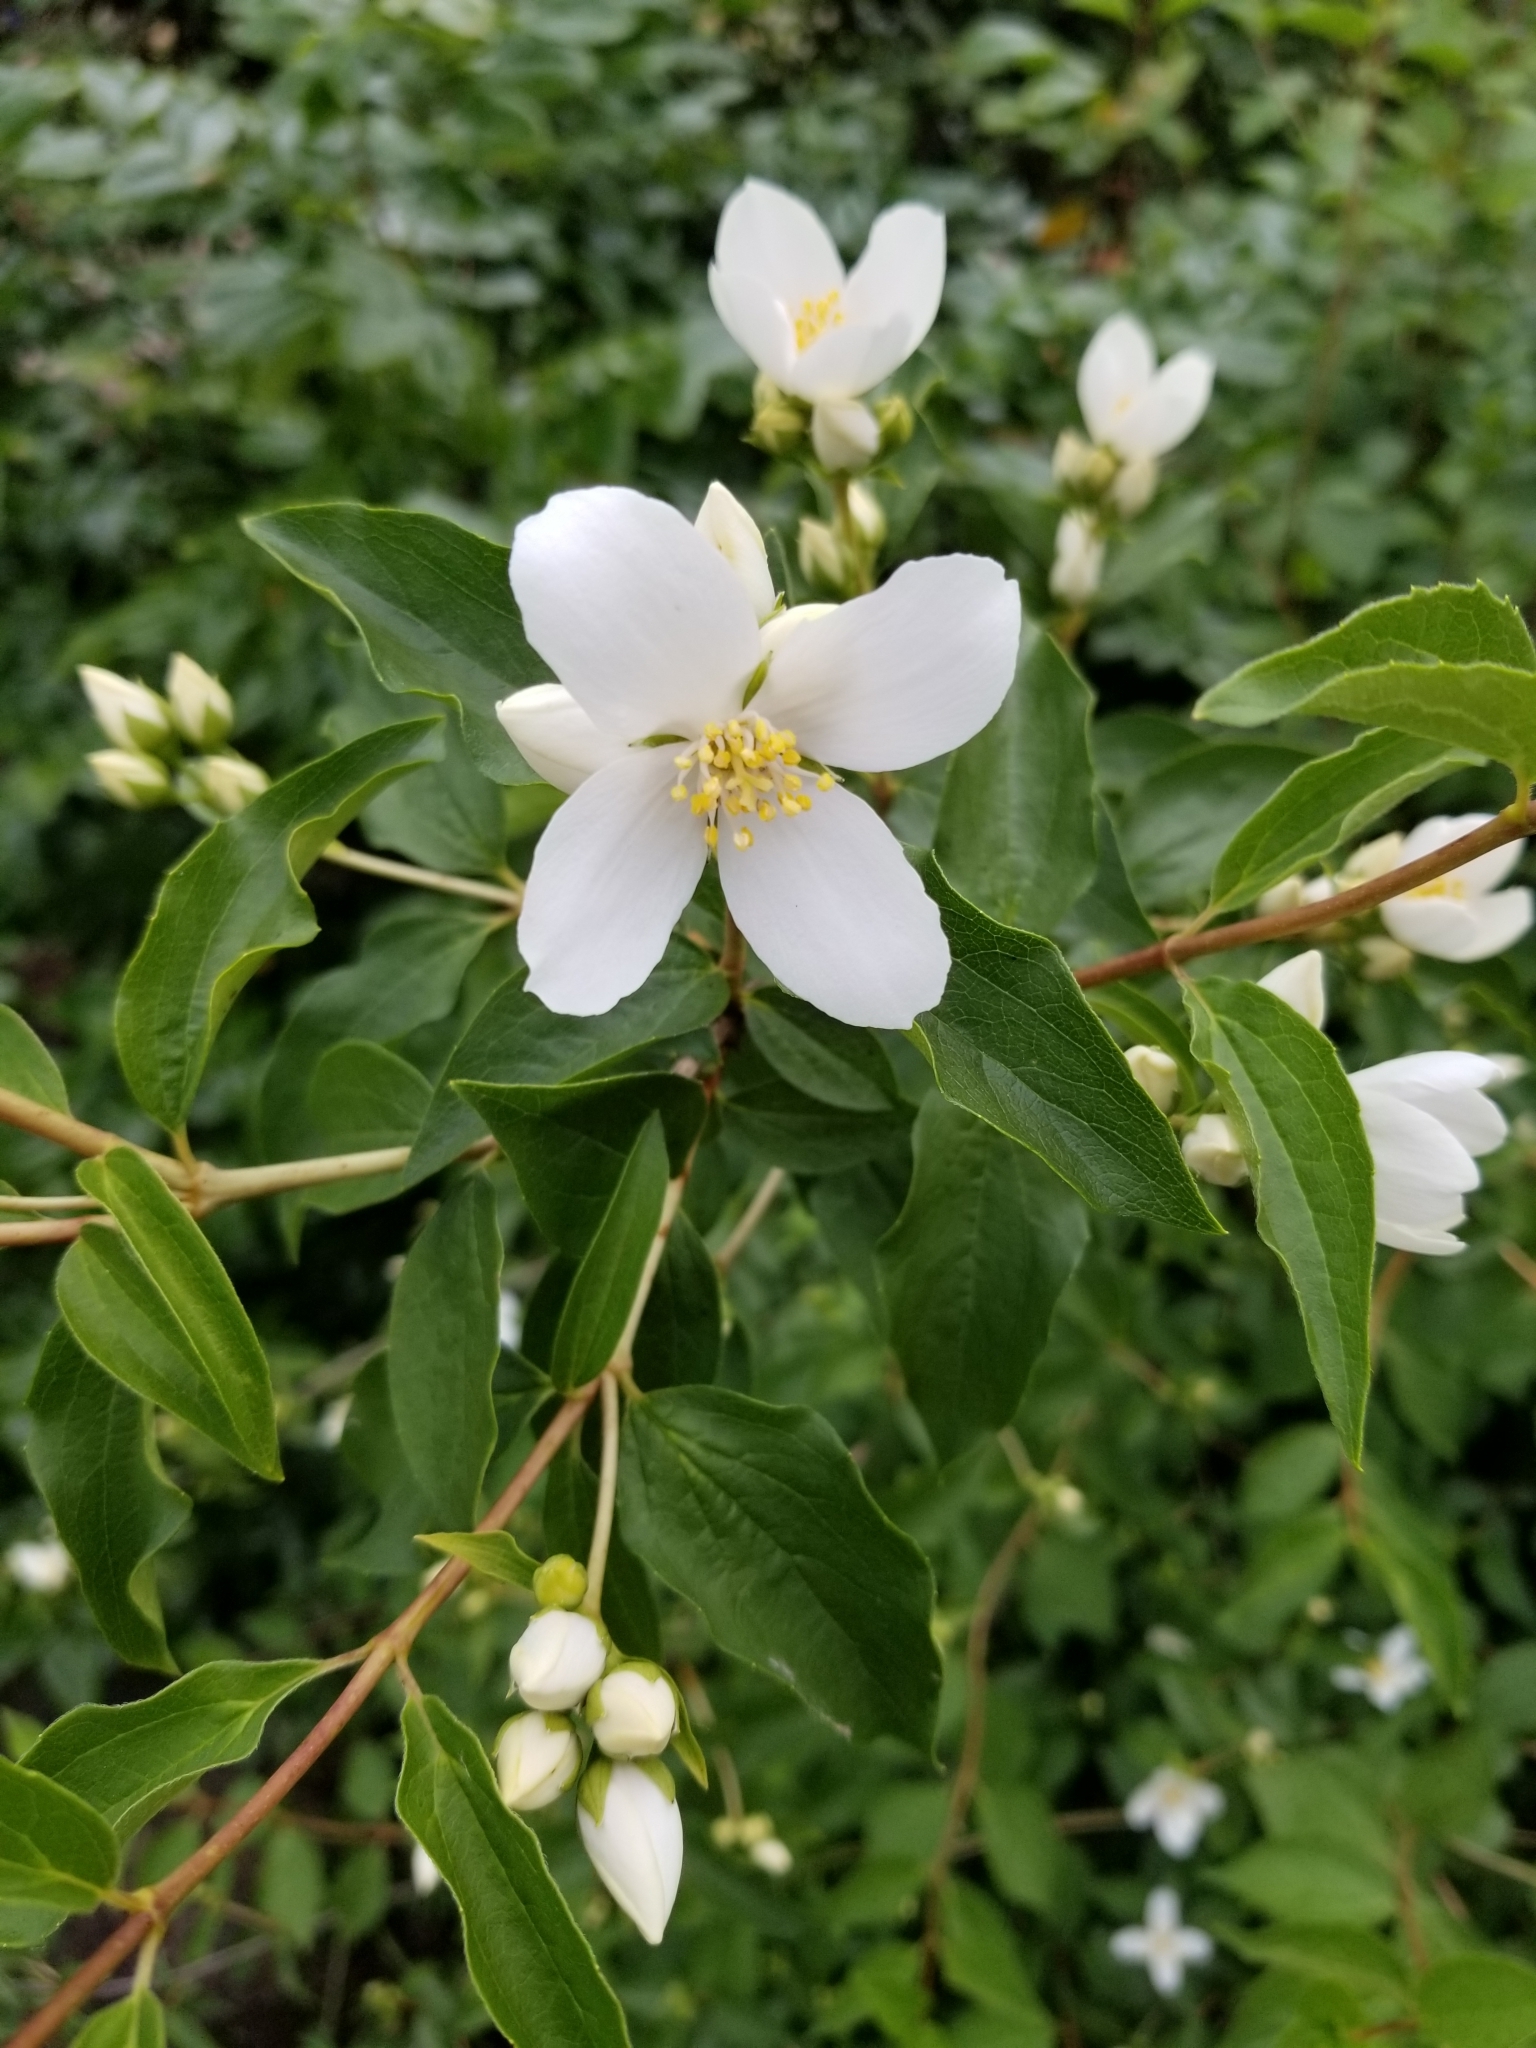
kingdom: Plantae
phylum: Tracheophyta
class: Magnoliopsida
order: Cornales
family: Hydrangeaceae
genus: Philadelphus
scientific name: Philadelphus lewisii
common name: Lewis's mock orange
